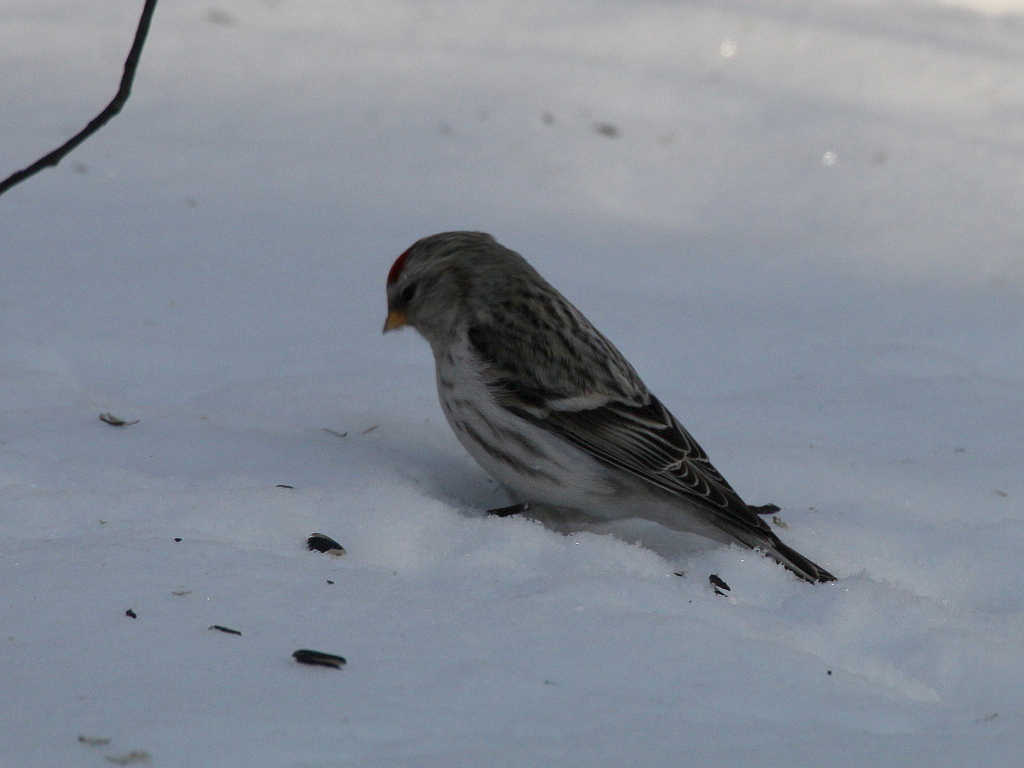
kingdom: Animalia
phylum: Chordata
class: Aves
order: Passeriformes
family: Fringillidae
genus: Acanthis
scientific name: Acanthis hornemanni
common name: Arctic redpoll
